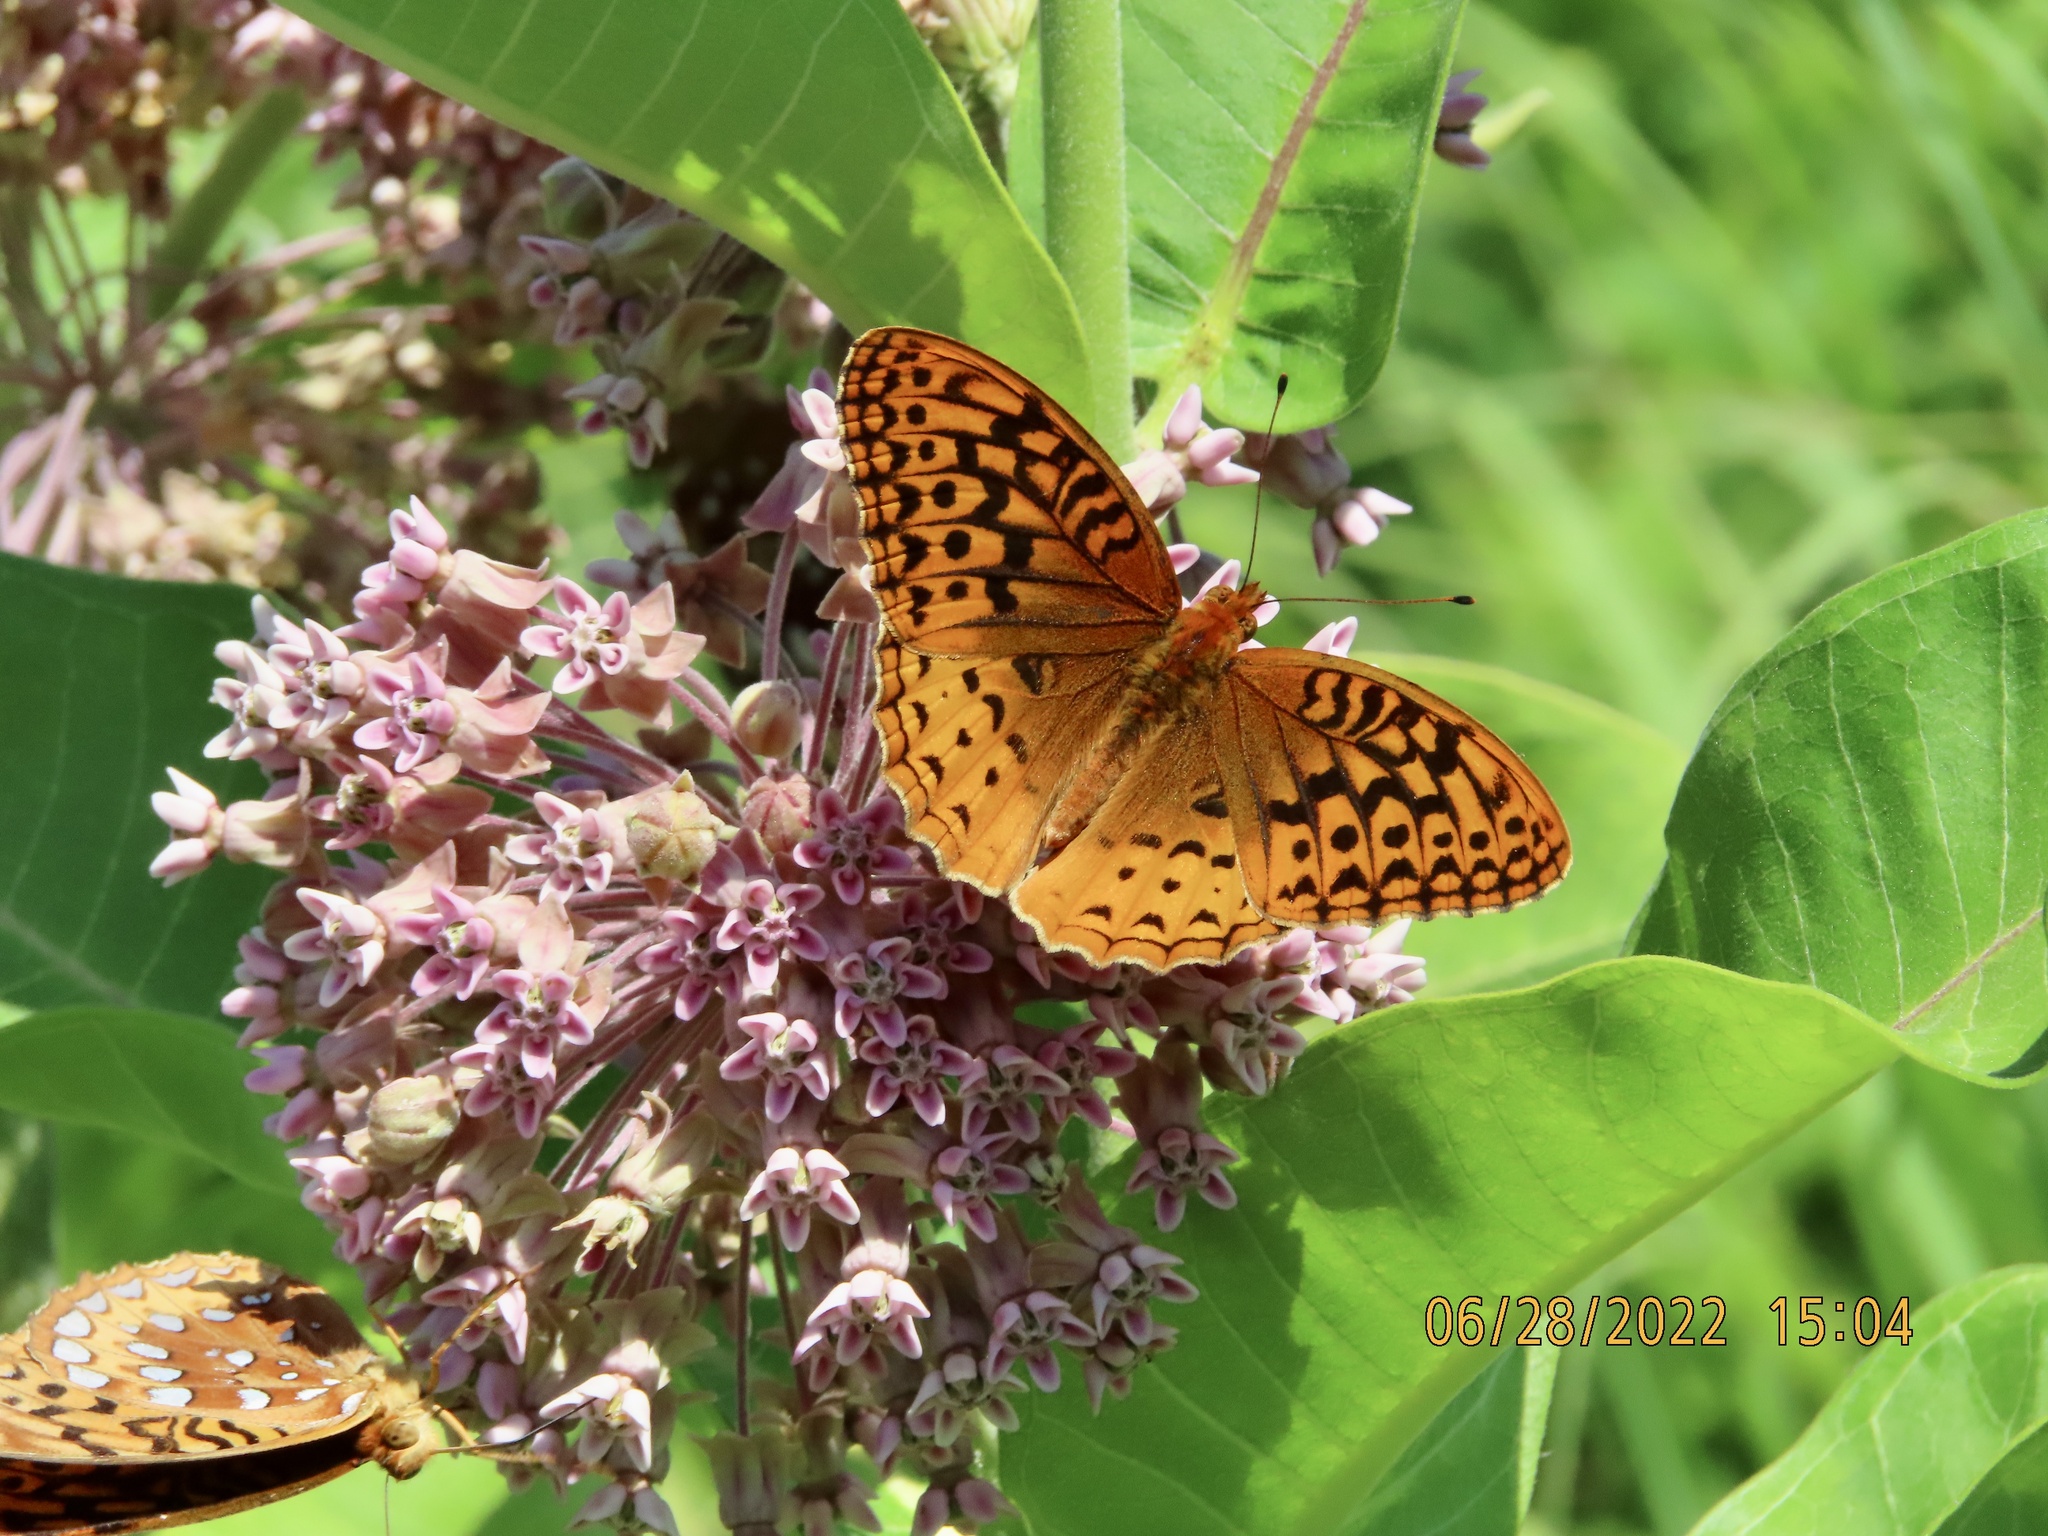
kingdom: Animalia
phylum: Arthropoda
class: Insecta
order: Lepidoptera
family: Nymphalidae
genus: Speyeria
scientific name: Speyeria cybele
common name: Great spangled fritillary
